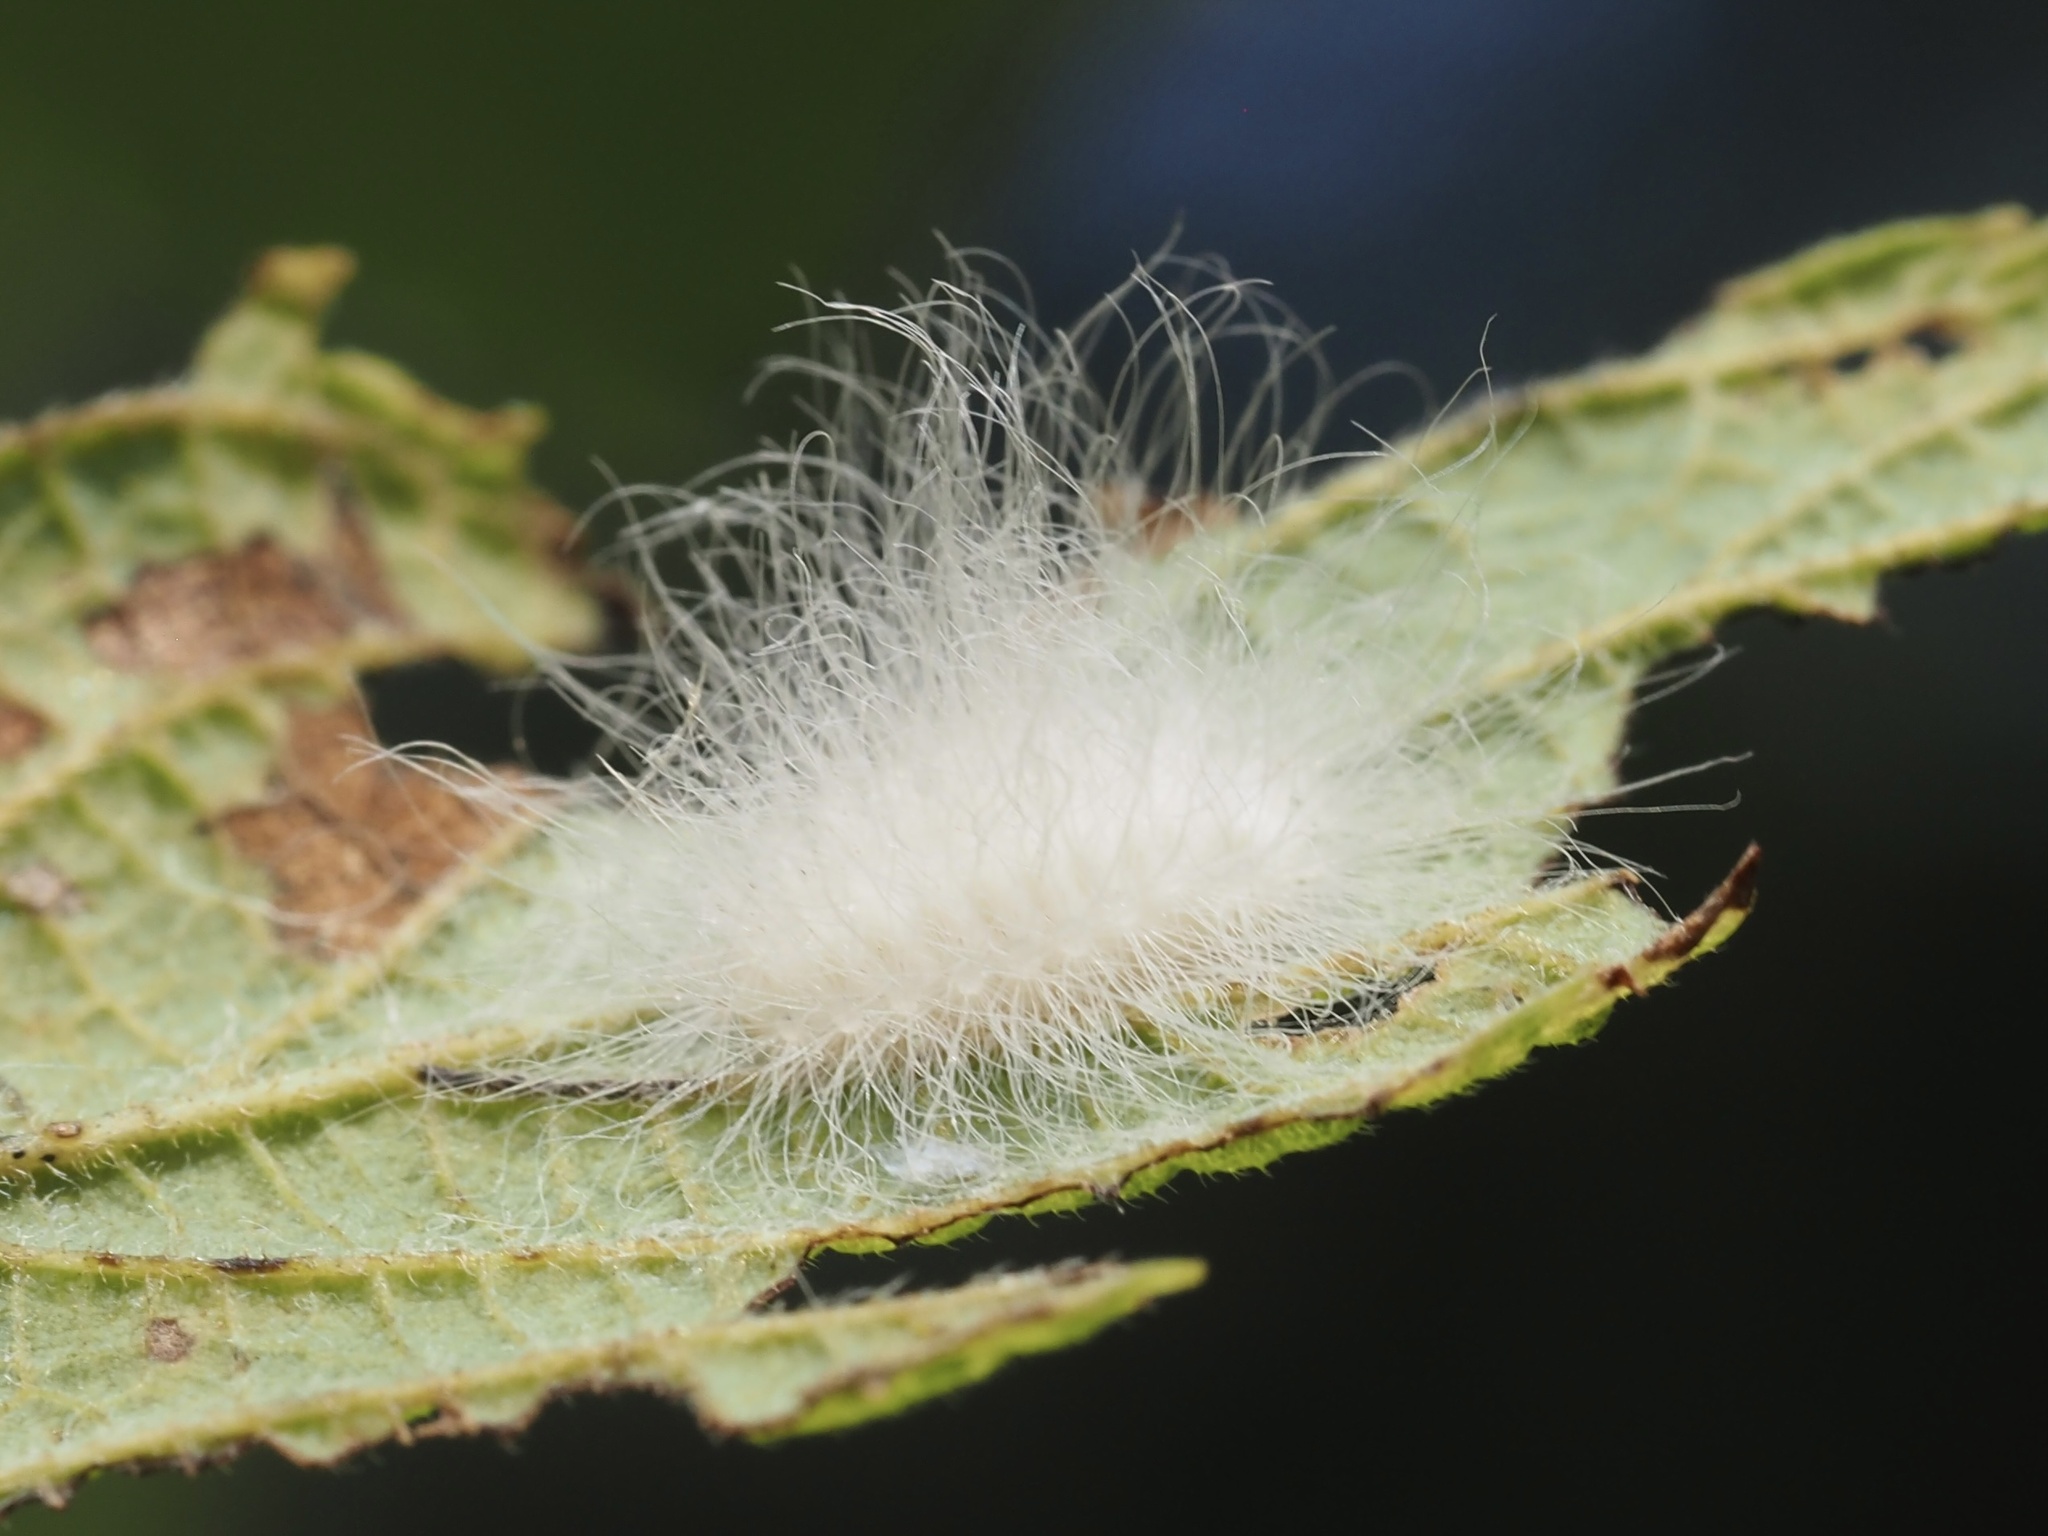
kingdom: Animalia
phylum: Arthropoda
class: Insecta
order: Lepidoptera
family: Megalopygidae
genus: Megalopyge
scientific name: Megalopyge crispata
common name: Black-waved flannel moth
